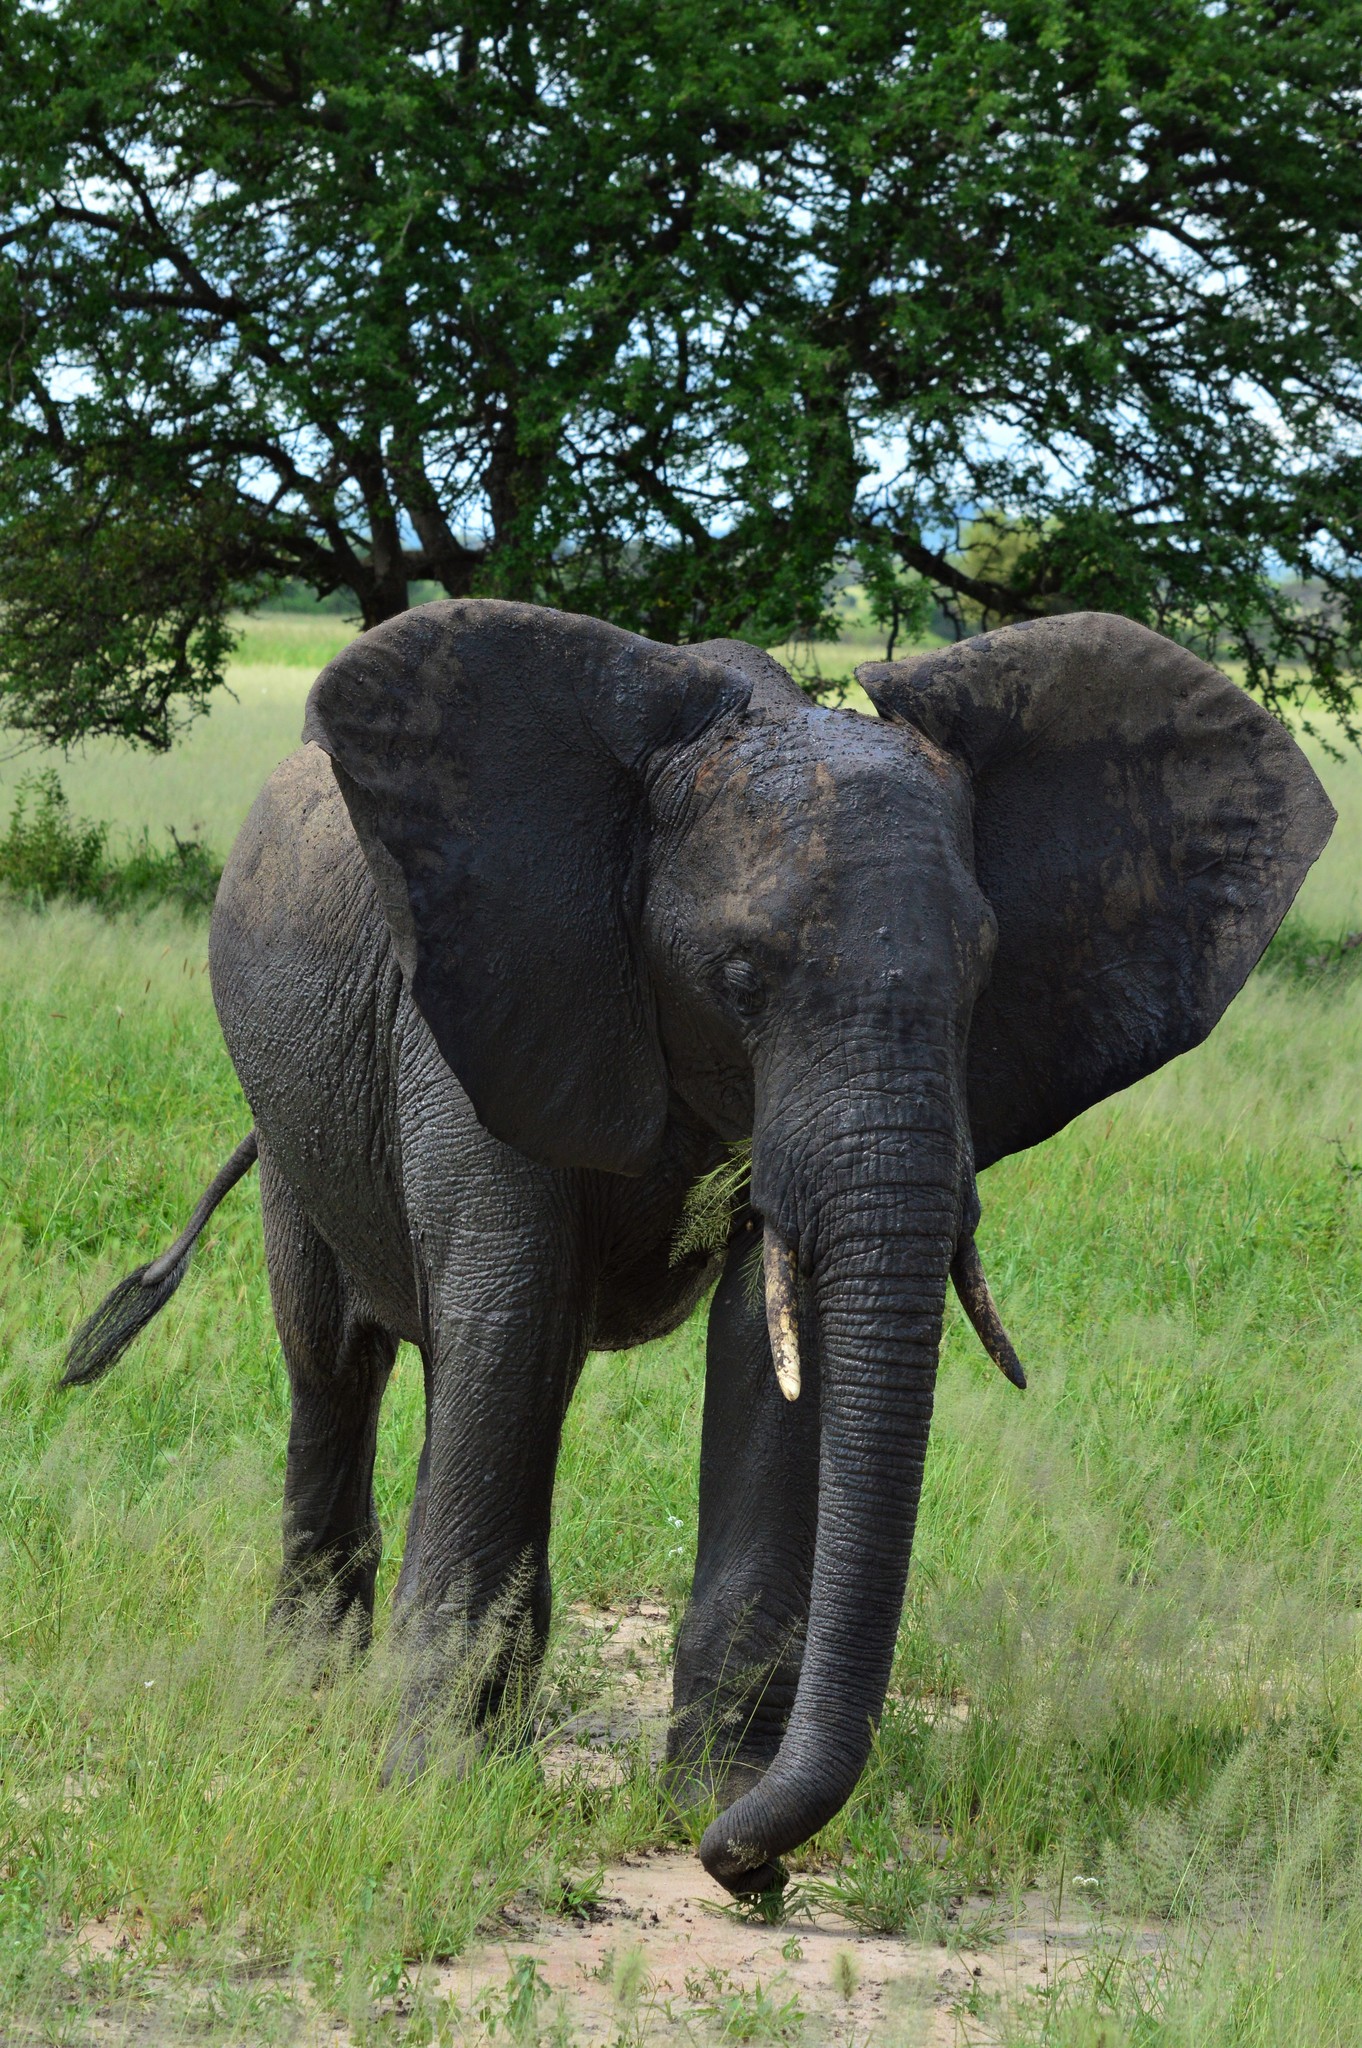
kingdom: Animalia
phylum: Chordata
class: Mammalia
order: Proboscidea
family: Elephantidae
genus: Loxodonta
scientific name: Loxodonta africana
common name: African elephant
